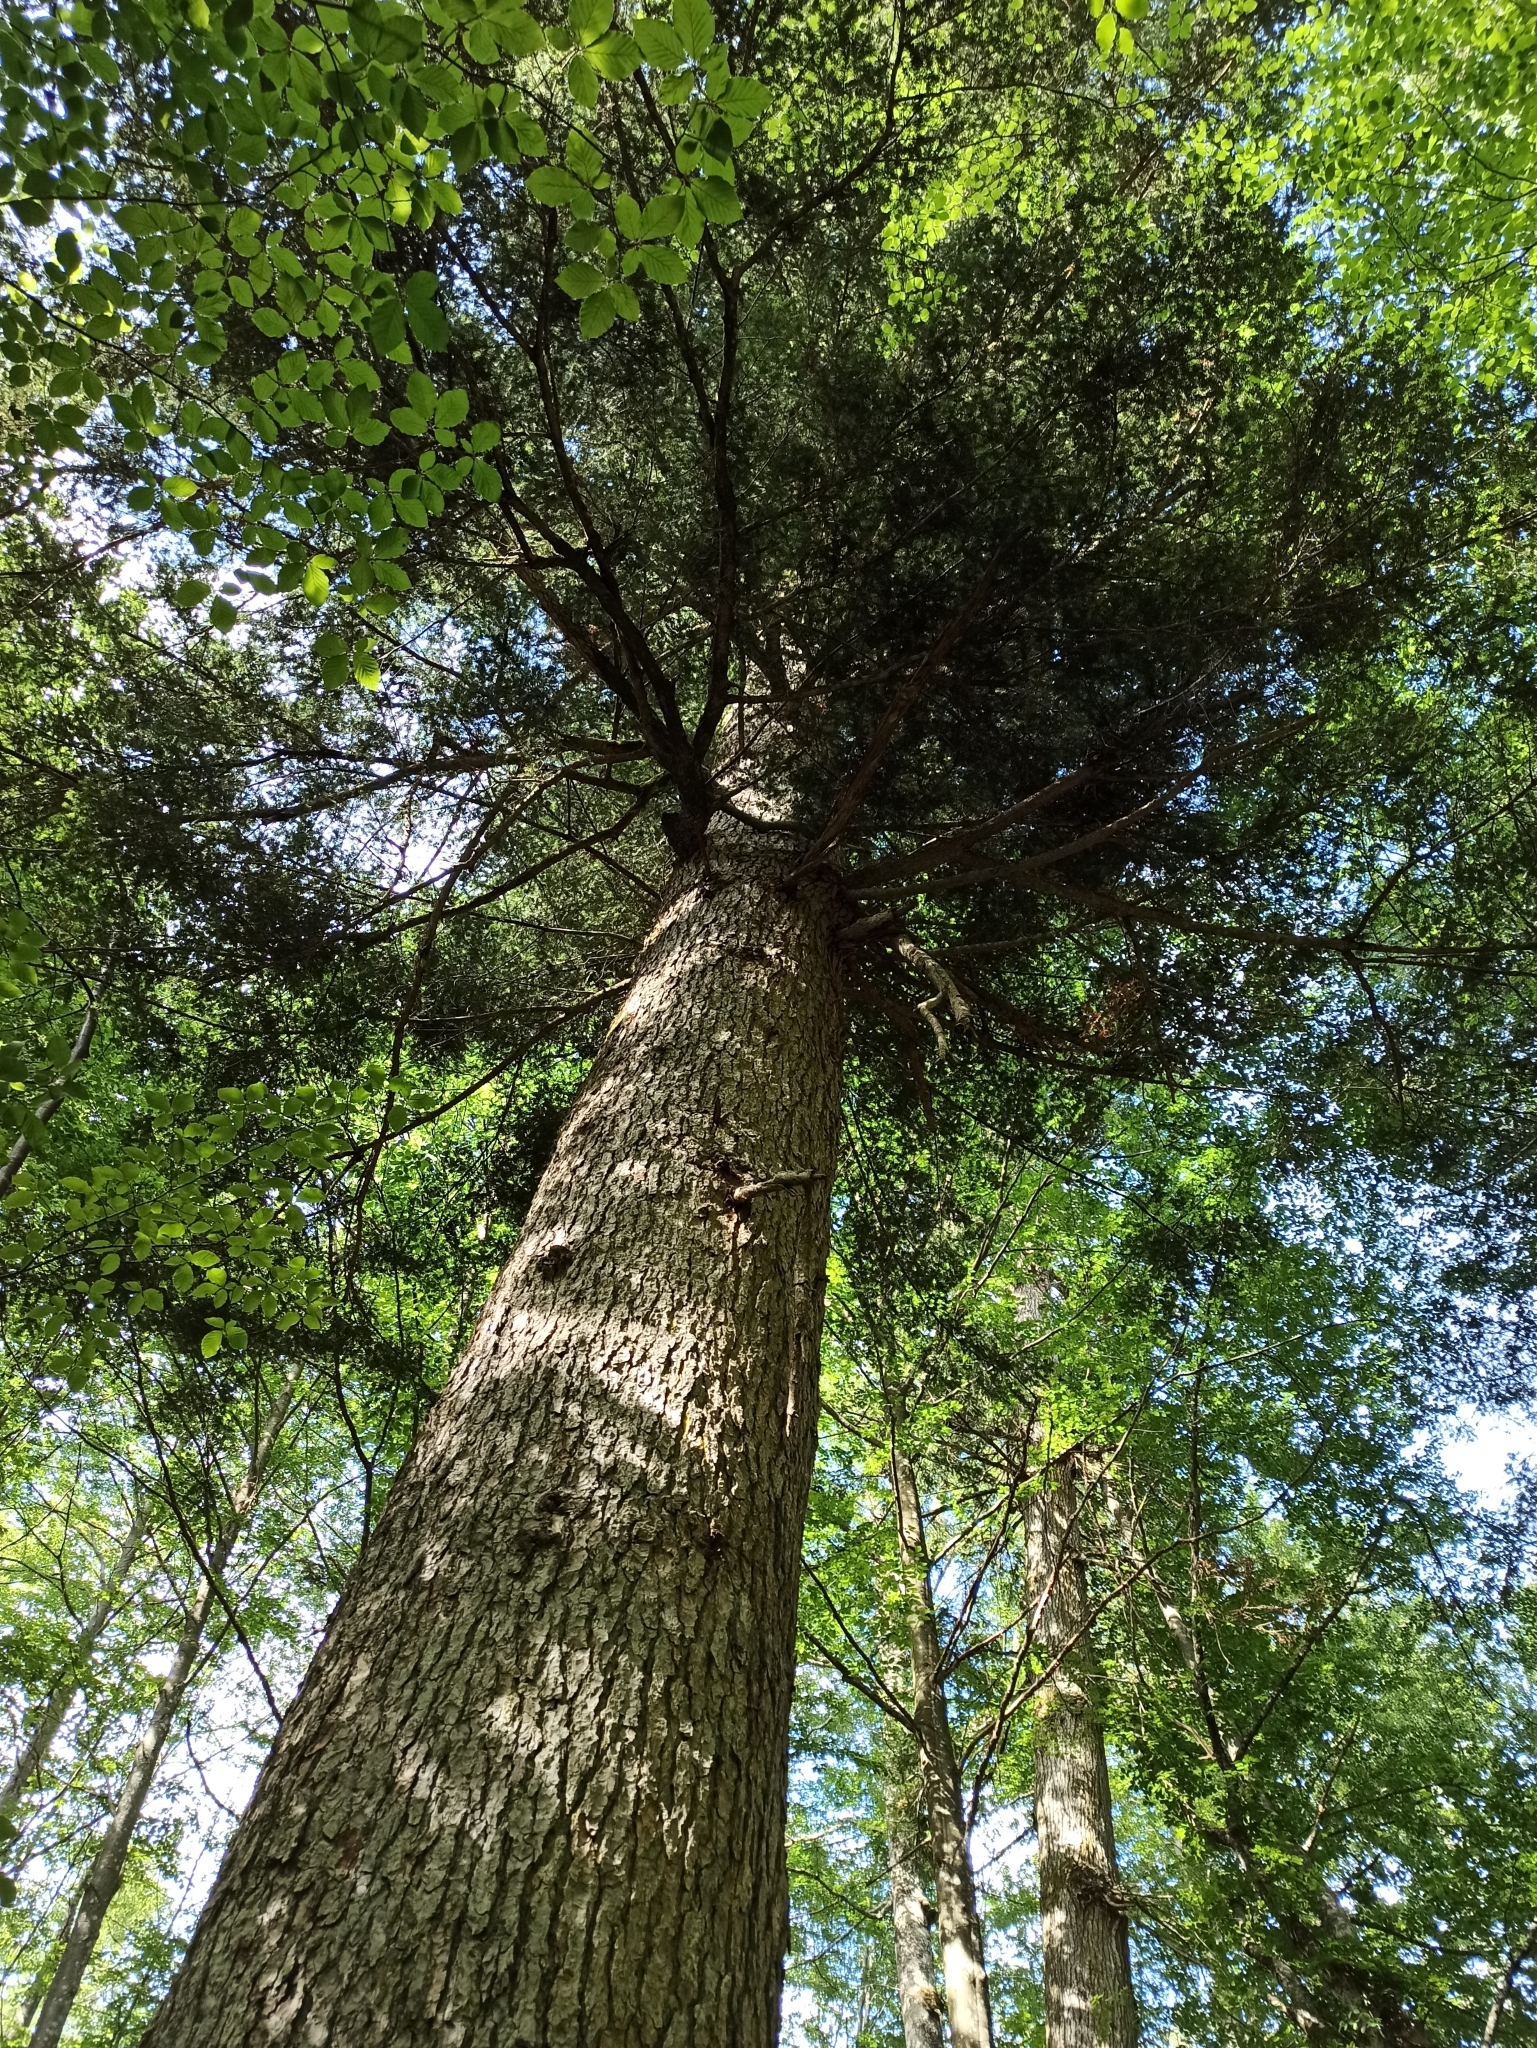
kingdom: Plantae
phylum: Tracheophyta
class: Pinopsida
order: Pinales
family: Pinaceae
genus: Abies
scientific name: Abies alba
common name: Silver fir
